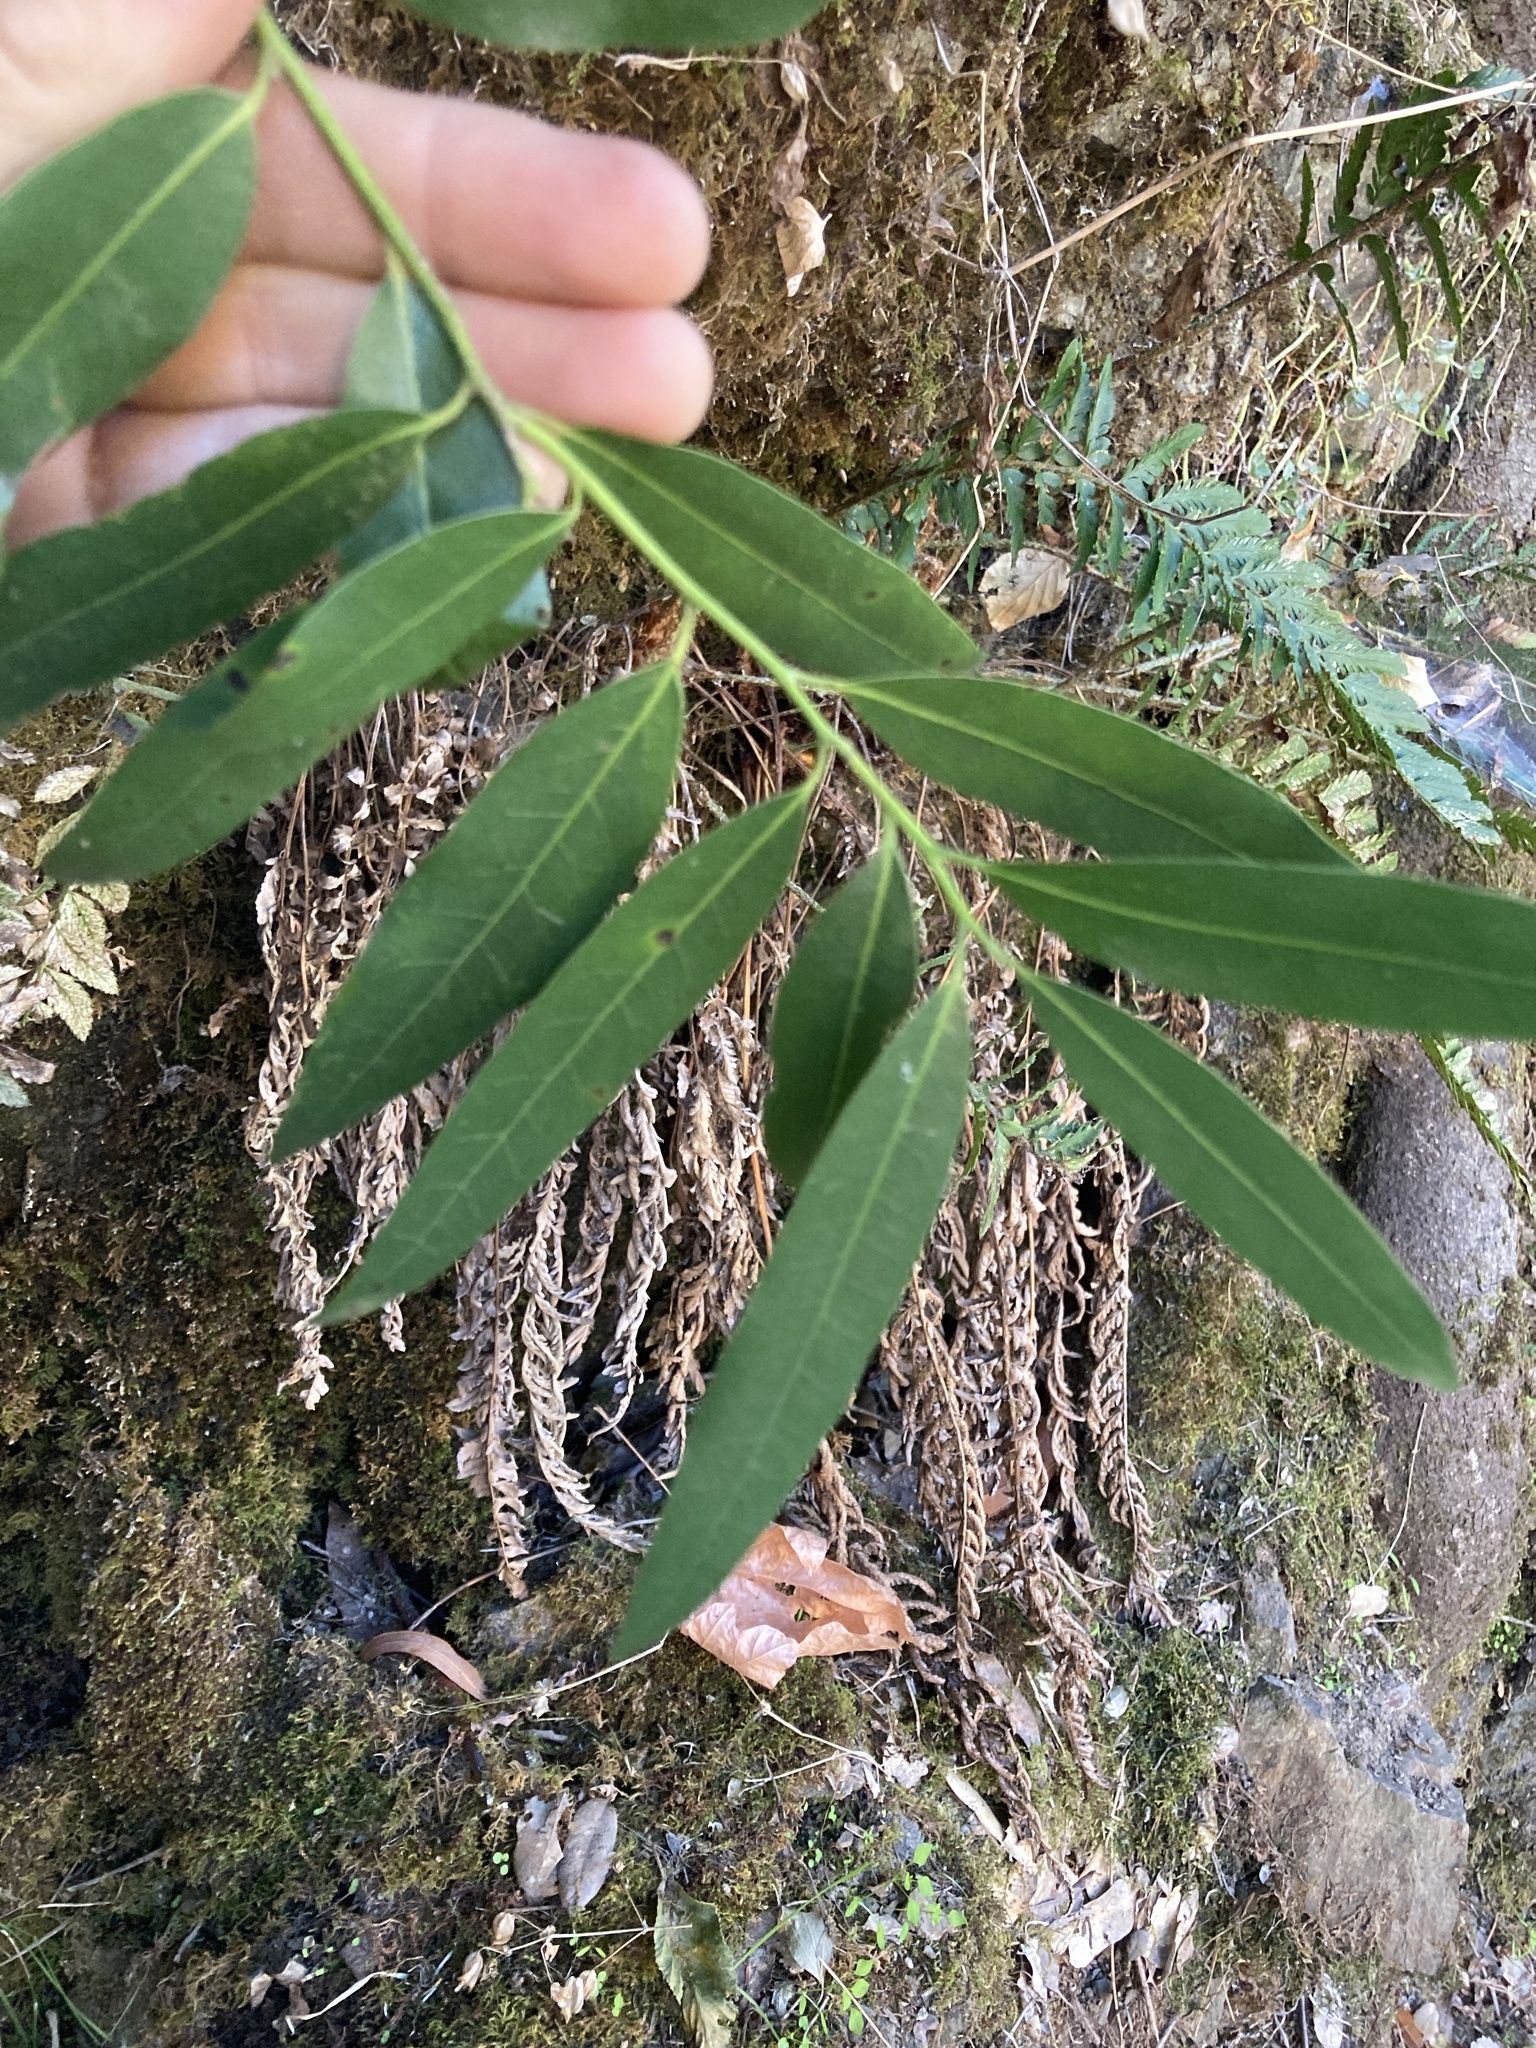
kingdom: Plantae
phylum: Tracheophyta
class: Magnoliopsida
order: Laurales
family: Lauraceae
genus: Umbellularia
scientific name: Umbellularia californica
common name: California bay
